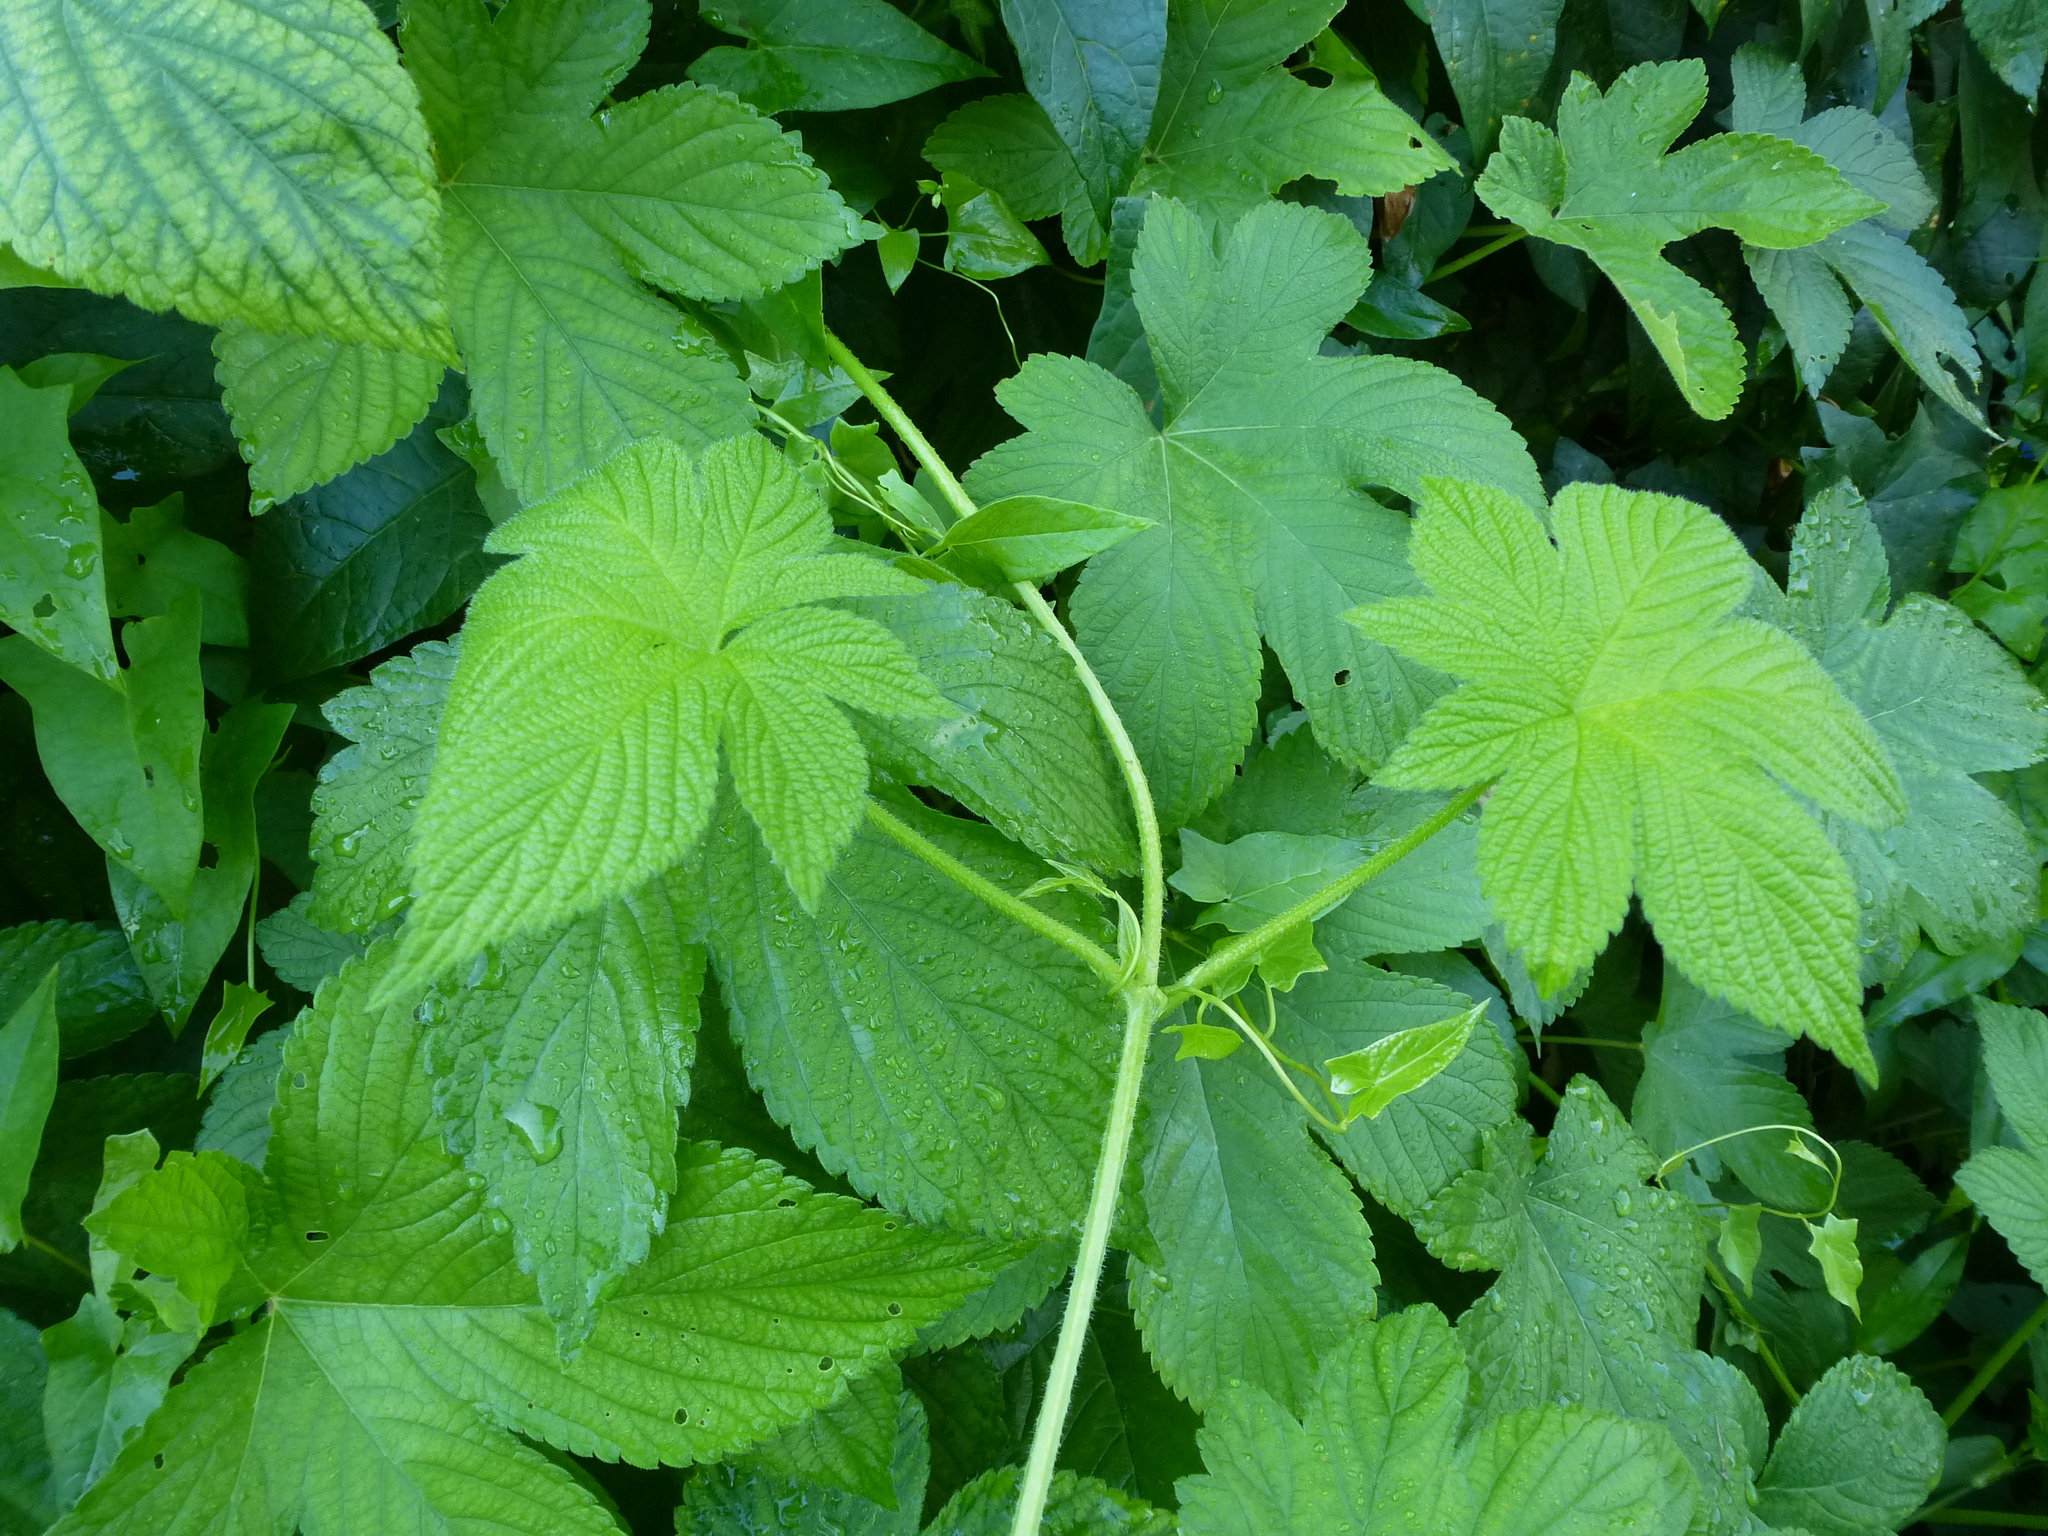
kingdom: Plantae
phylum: Tracheophyta
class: Magnoliopsida
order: Rosales
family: Cannabaceae
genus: Humulus
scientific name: Humulus scandens
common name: Japanese hop
